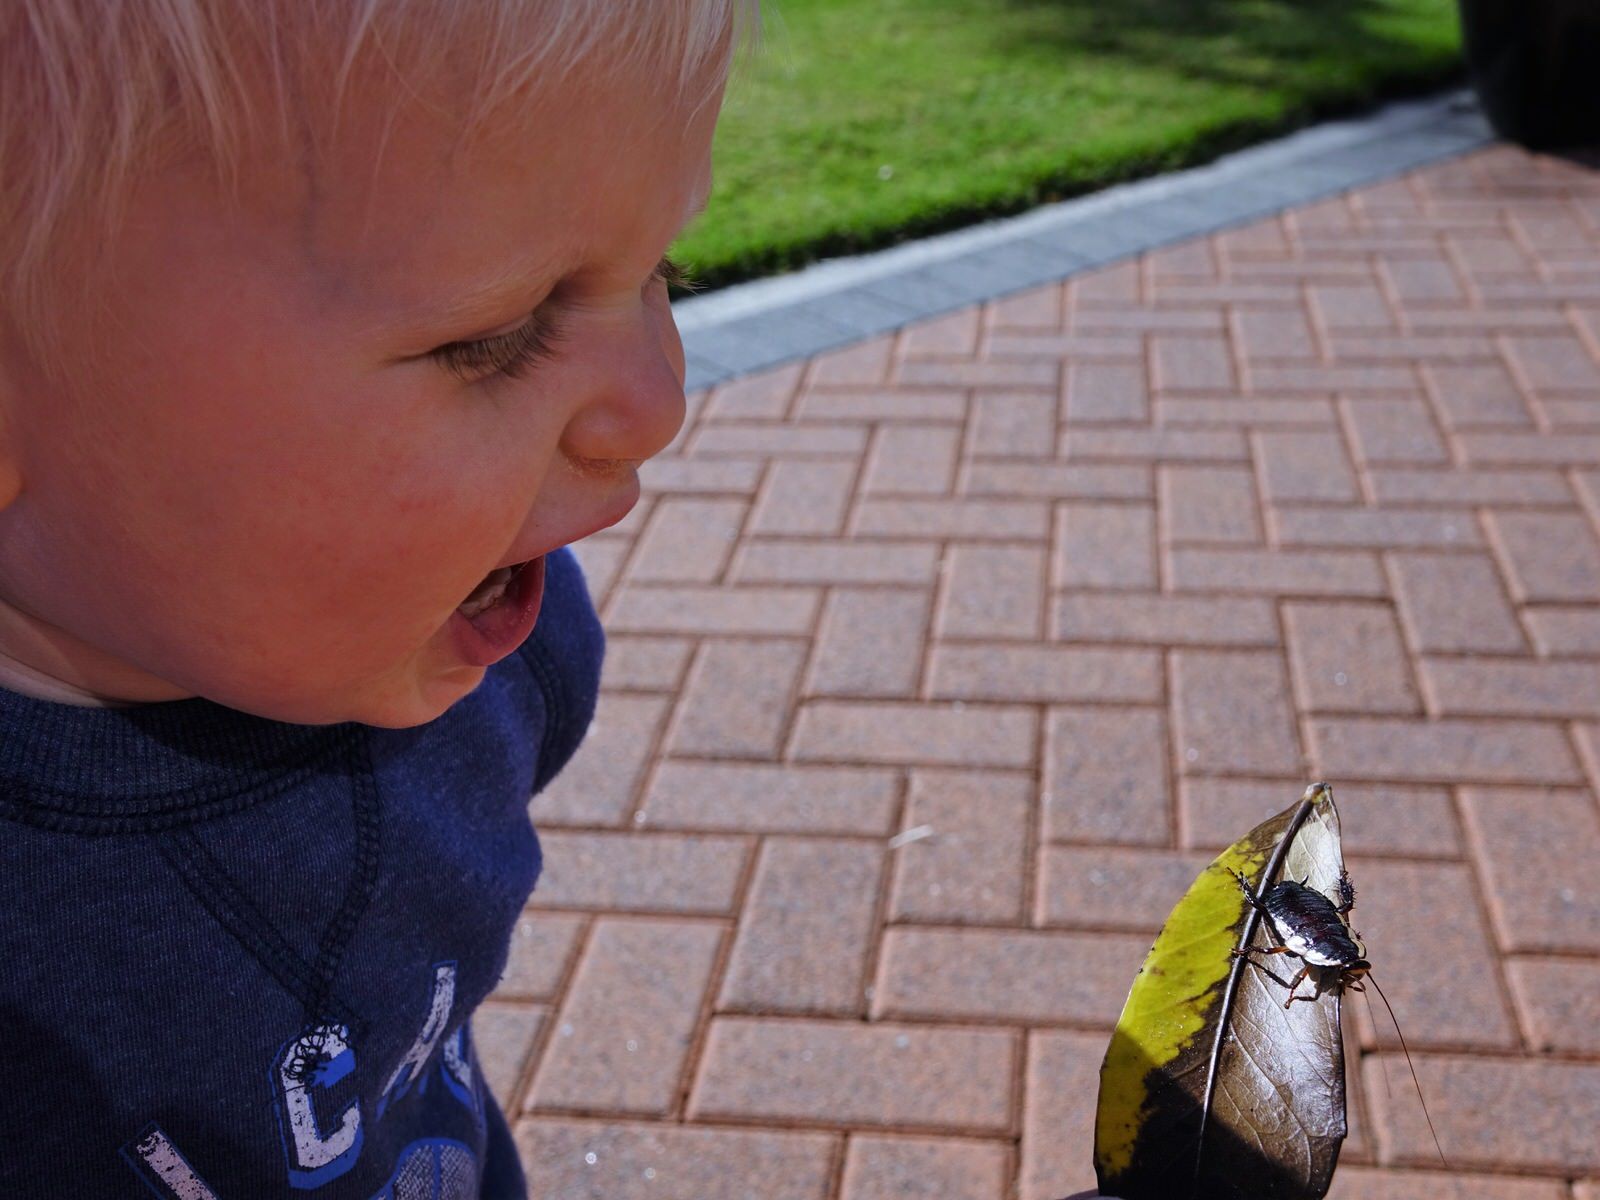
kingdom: Animalia
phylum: Arthropoda
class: Insecta
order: Blattodea
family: Blattidae
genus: Drymaplaneta
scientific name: Drymaplaneta semivitta
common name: Gisborne cockroach
